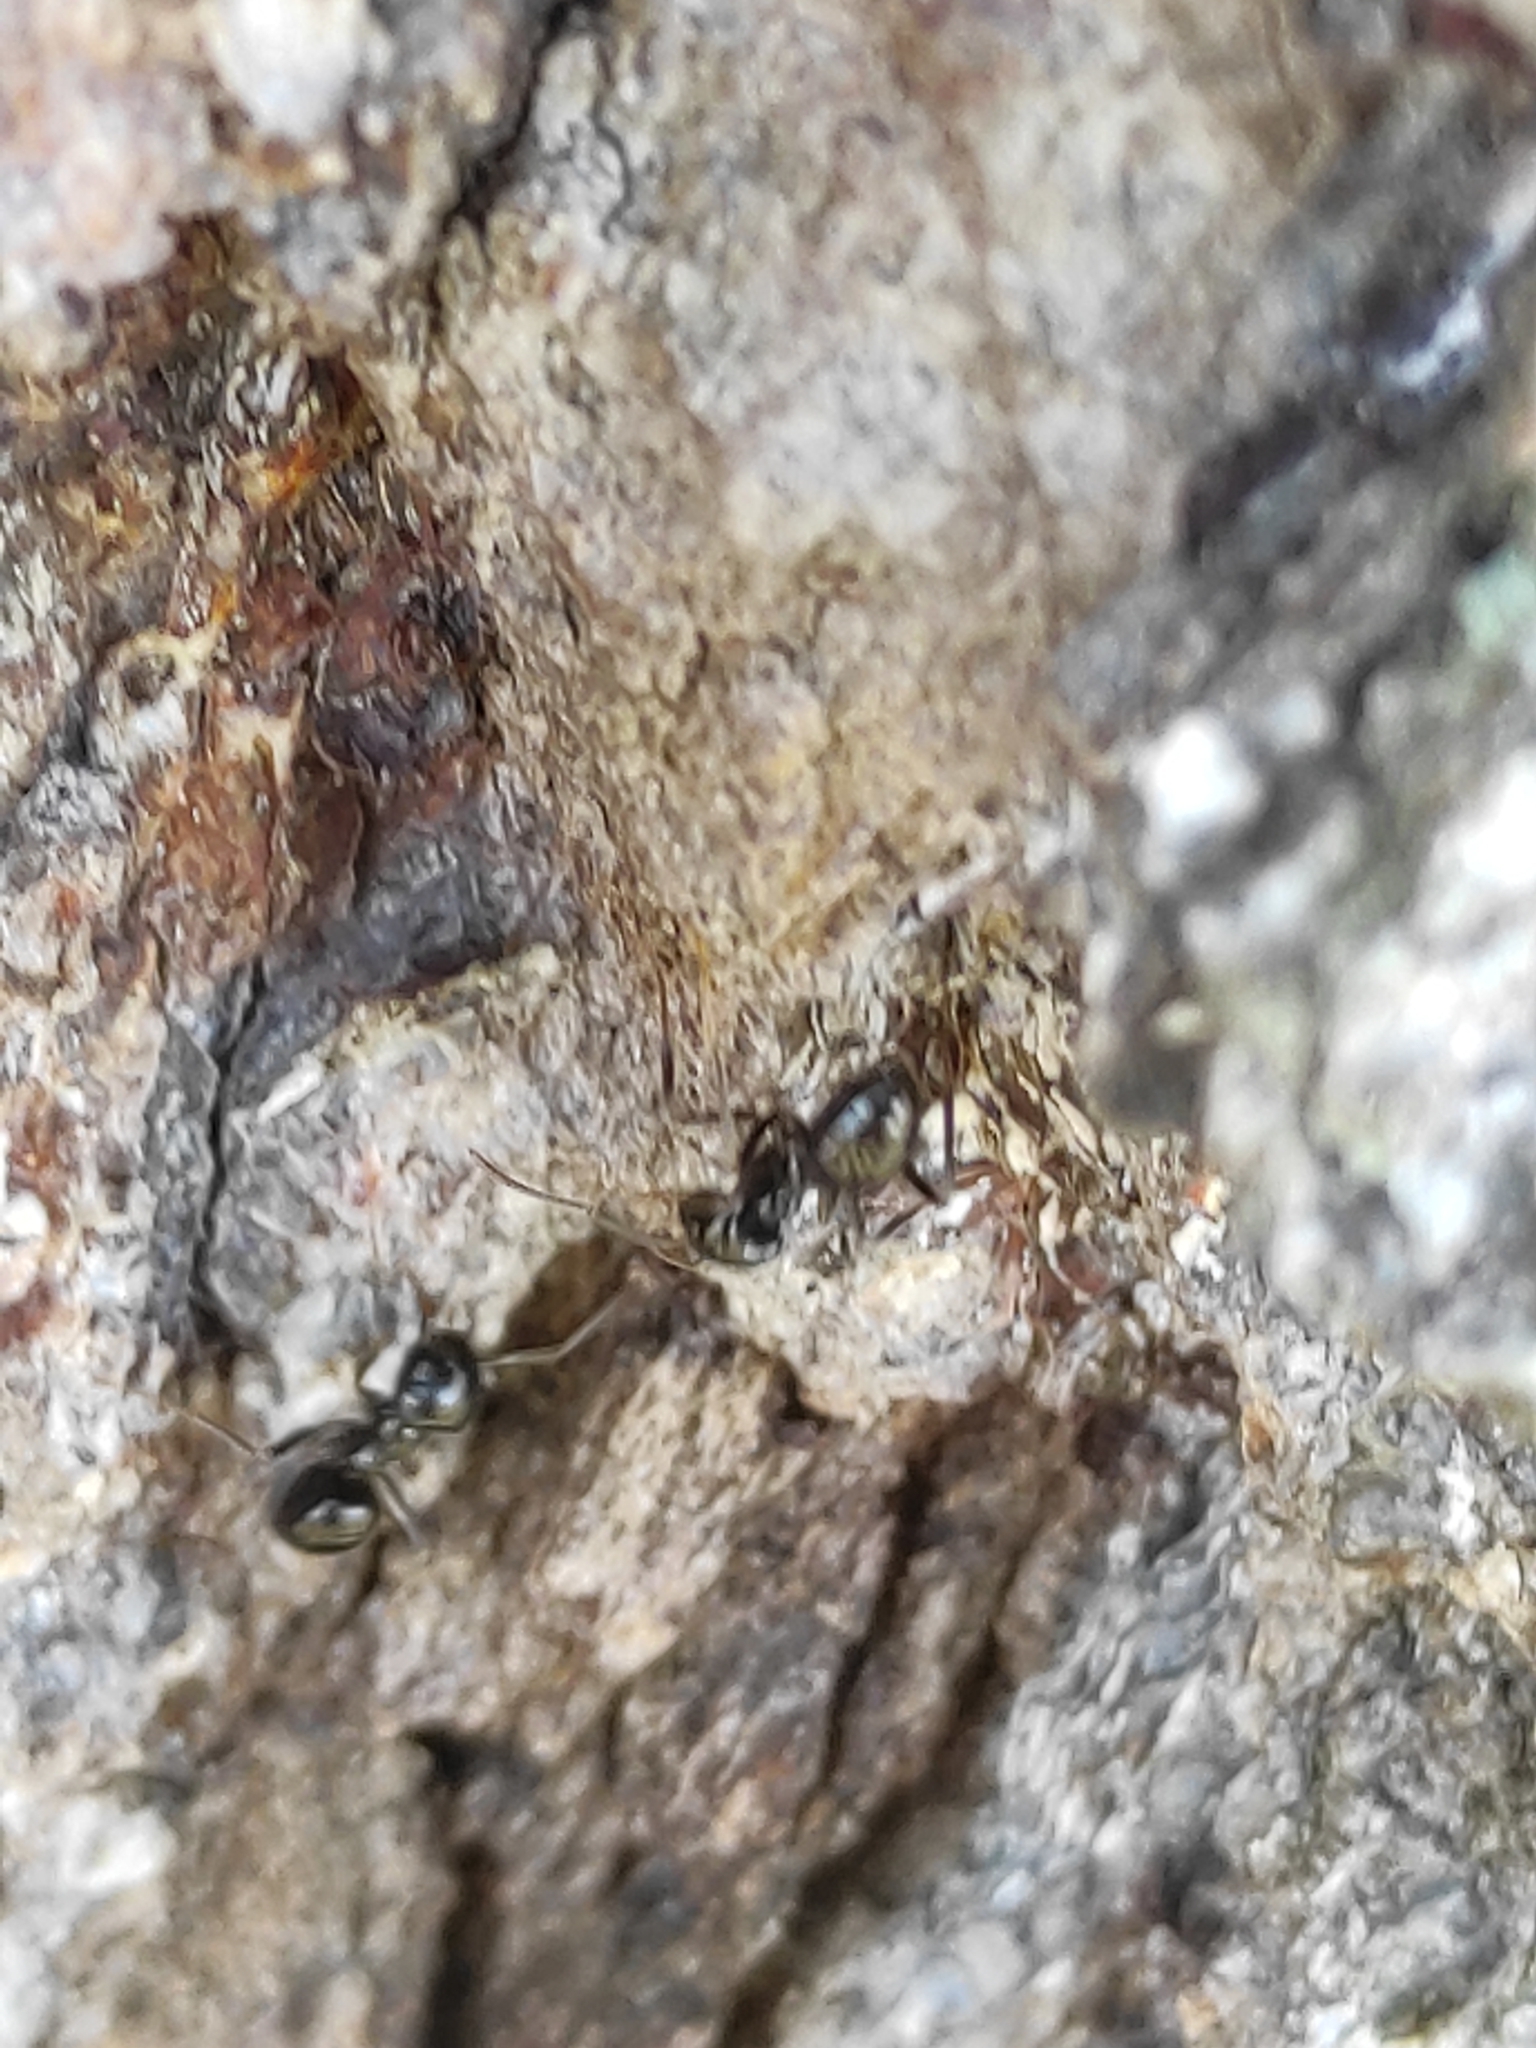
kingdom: Animalia
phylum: Arthropoda
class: Insecta
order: Hymenoptera
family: Formicidae
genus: Lasius
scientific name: Lasius fuliginosus
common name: Jet ant
